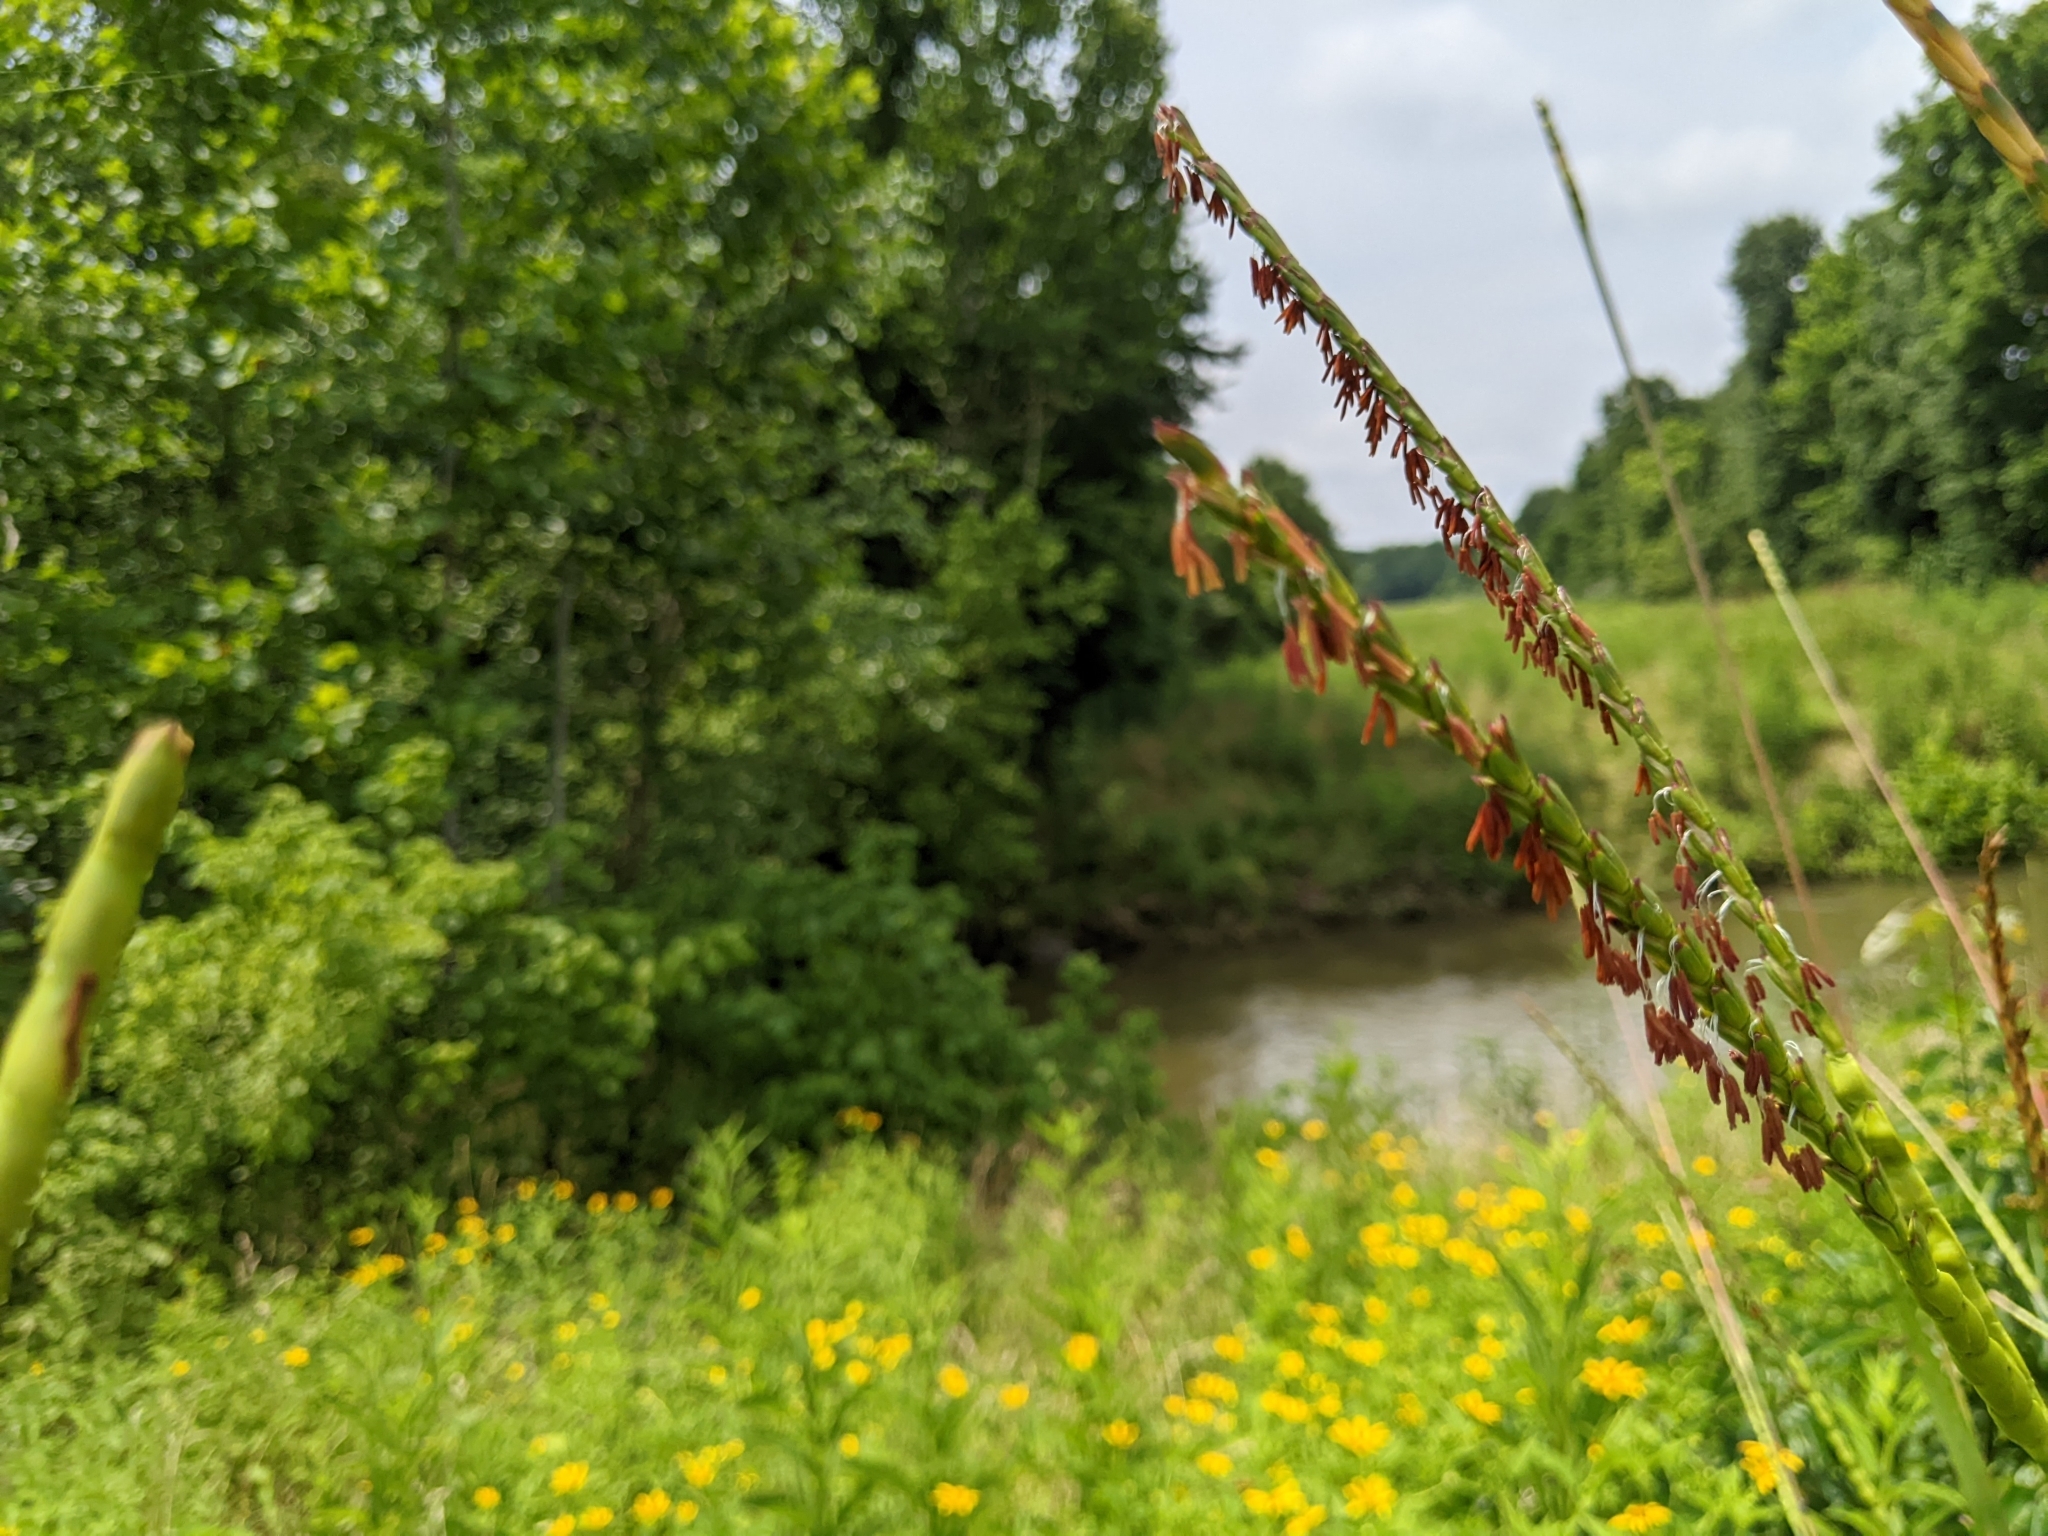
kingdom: Plantae
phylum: Tracheophyta
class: Liliopsida
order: Poales
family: Poaceae
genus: Tripsacum
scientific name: Tripsacum dactyloides
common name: Buffalo-grass
